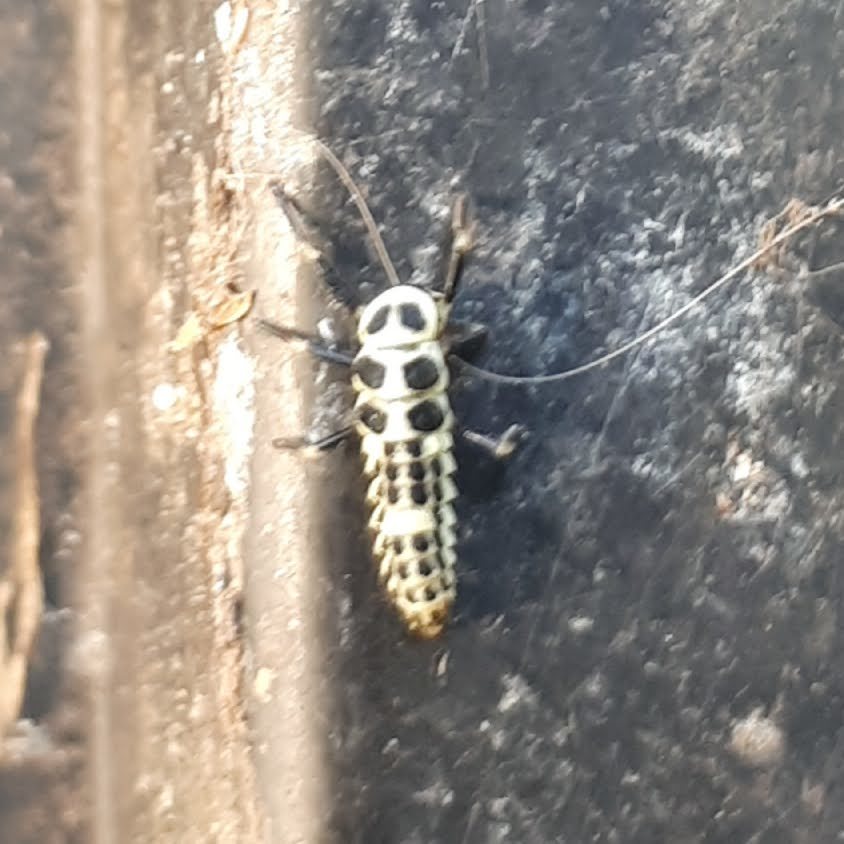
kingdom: Animalia
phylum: Arthropoda
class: Insecta
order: Coleoptera
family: Coccinellidae
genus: Calvia
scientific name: Calvia decemguttata
